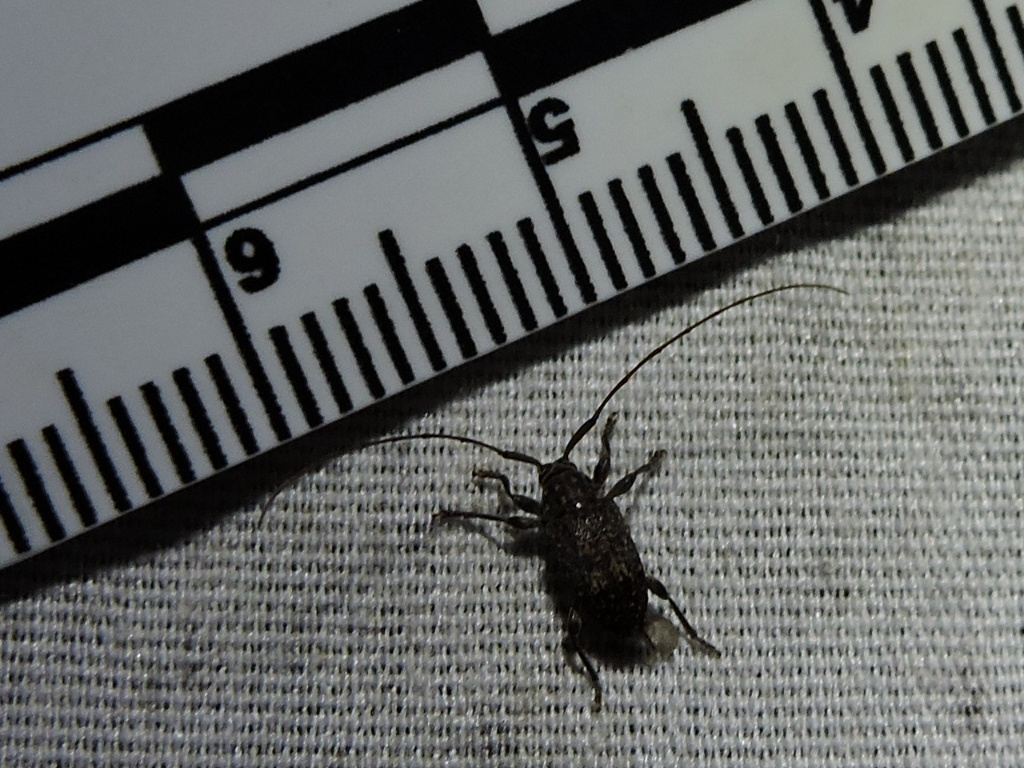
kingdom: Animalia
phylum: Arthropoda
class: Insecta
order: Coleoptera
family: Cerambycidae
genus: Atrypanius
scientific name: Atrypanius irrorellus
